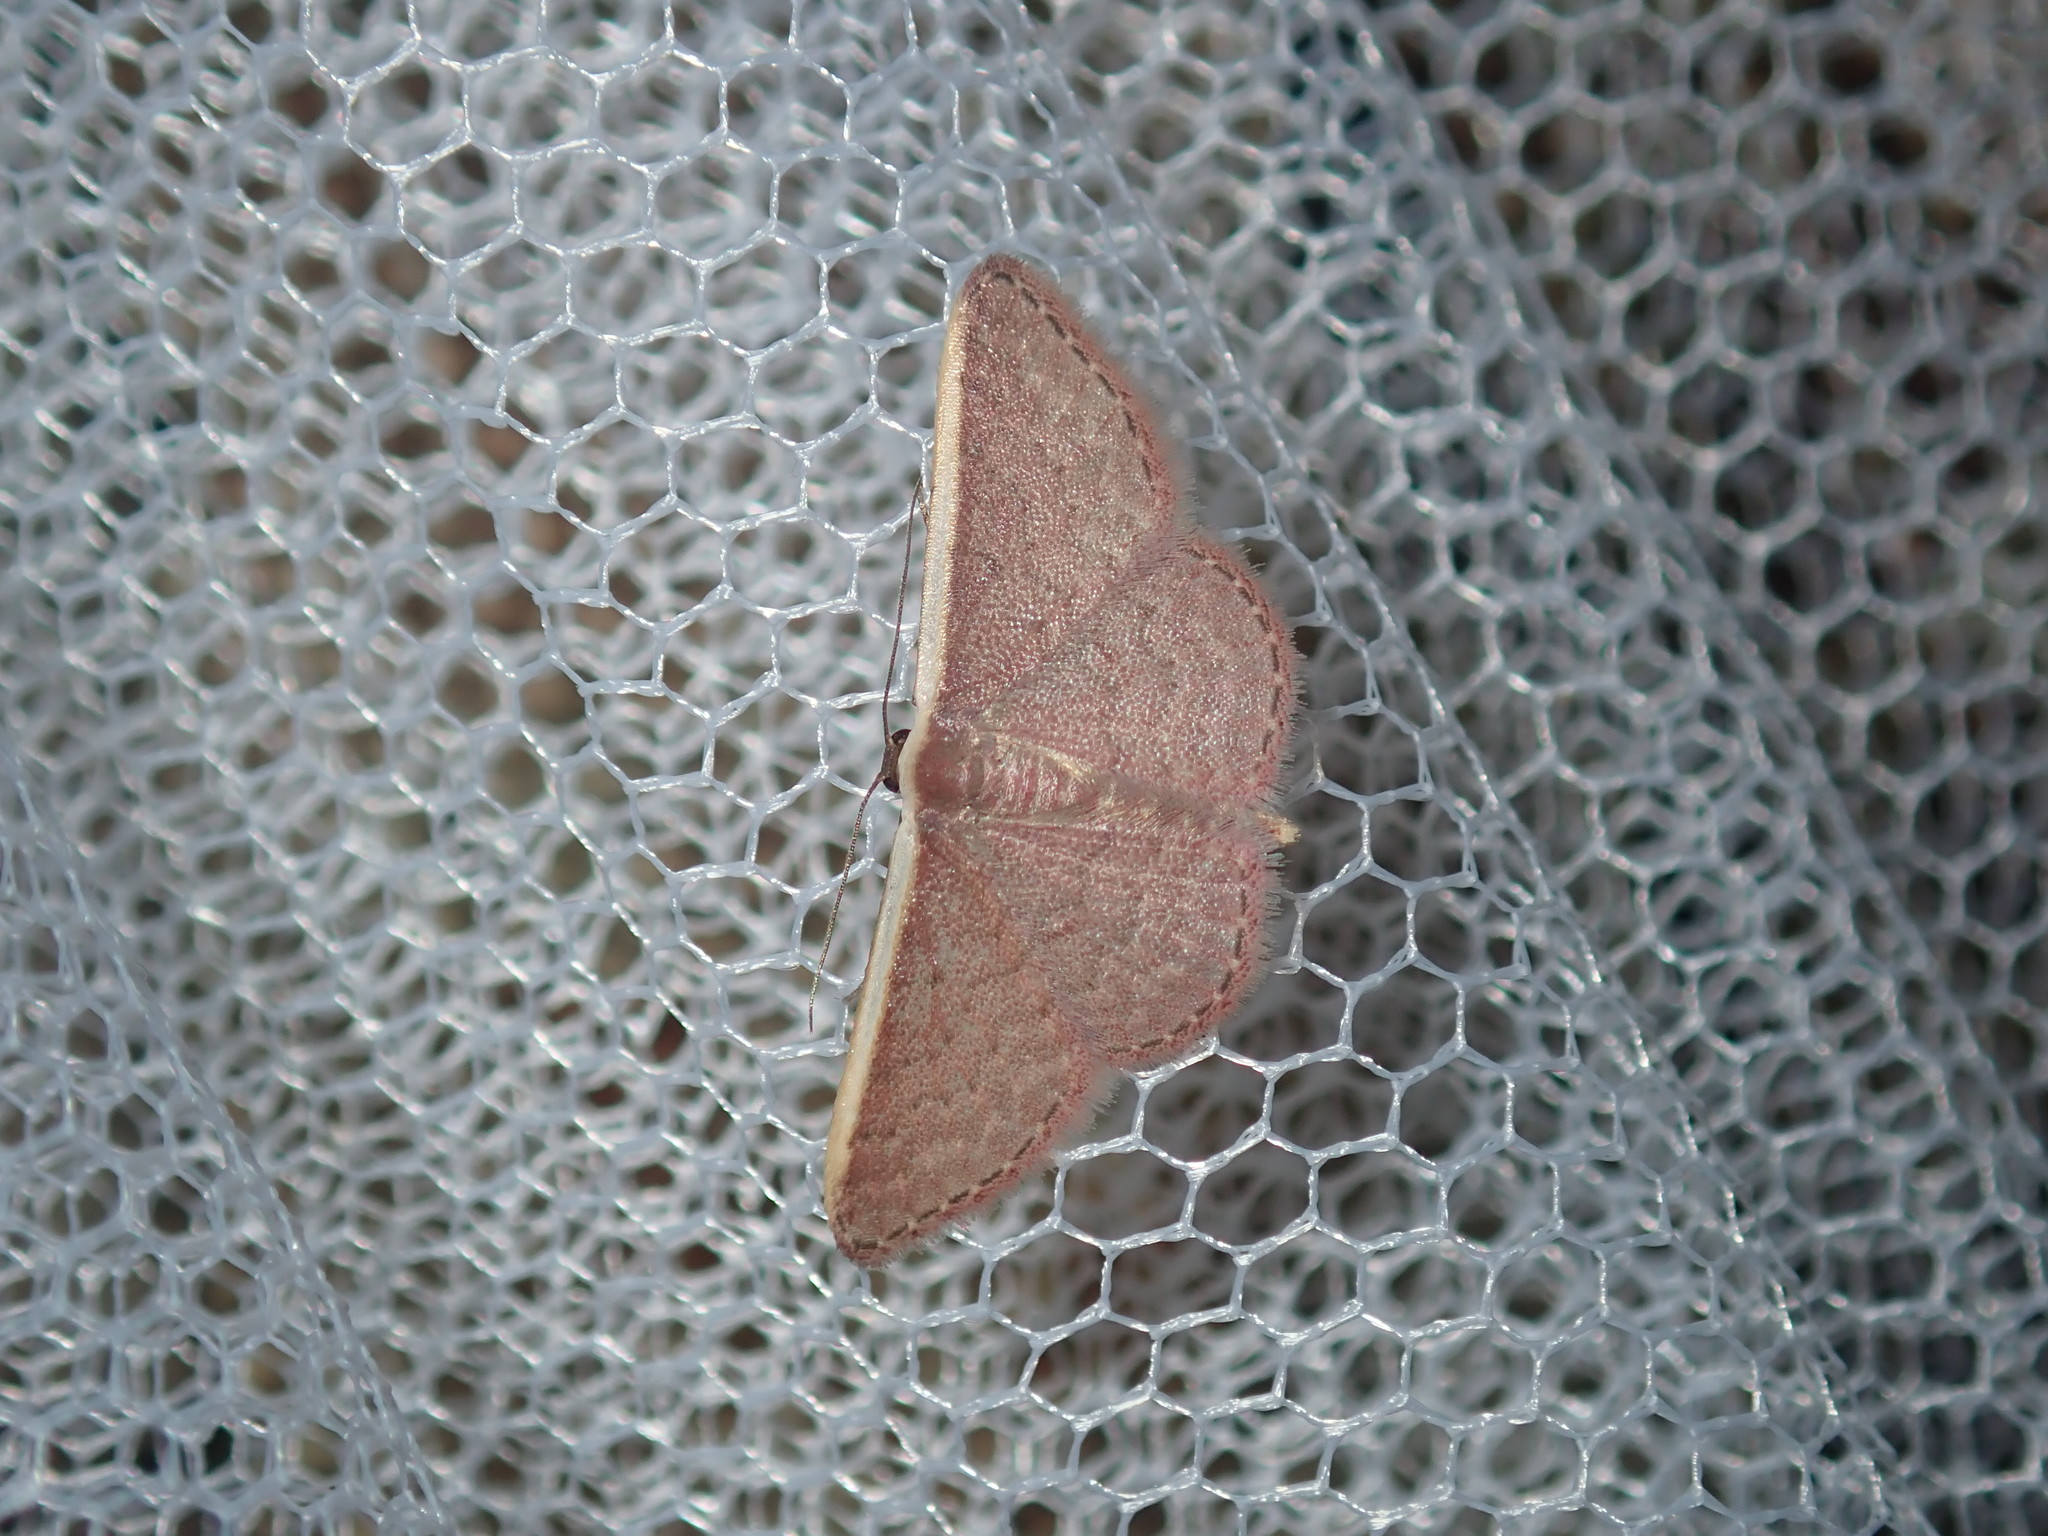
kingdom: Animalia
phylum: Arthropoda
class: Insecta
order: Lepidoptera
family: Geometridae
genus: Idaea
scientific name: Idaea inversata
